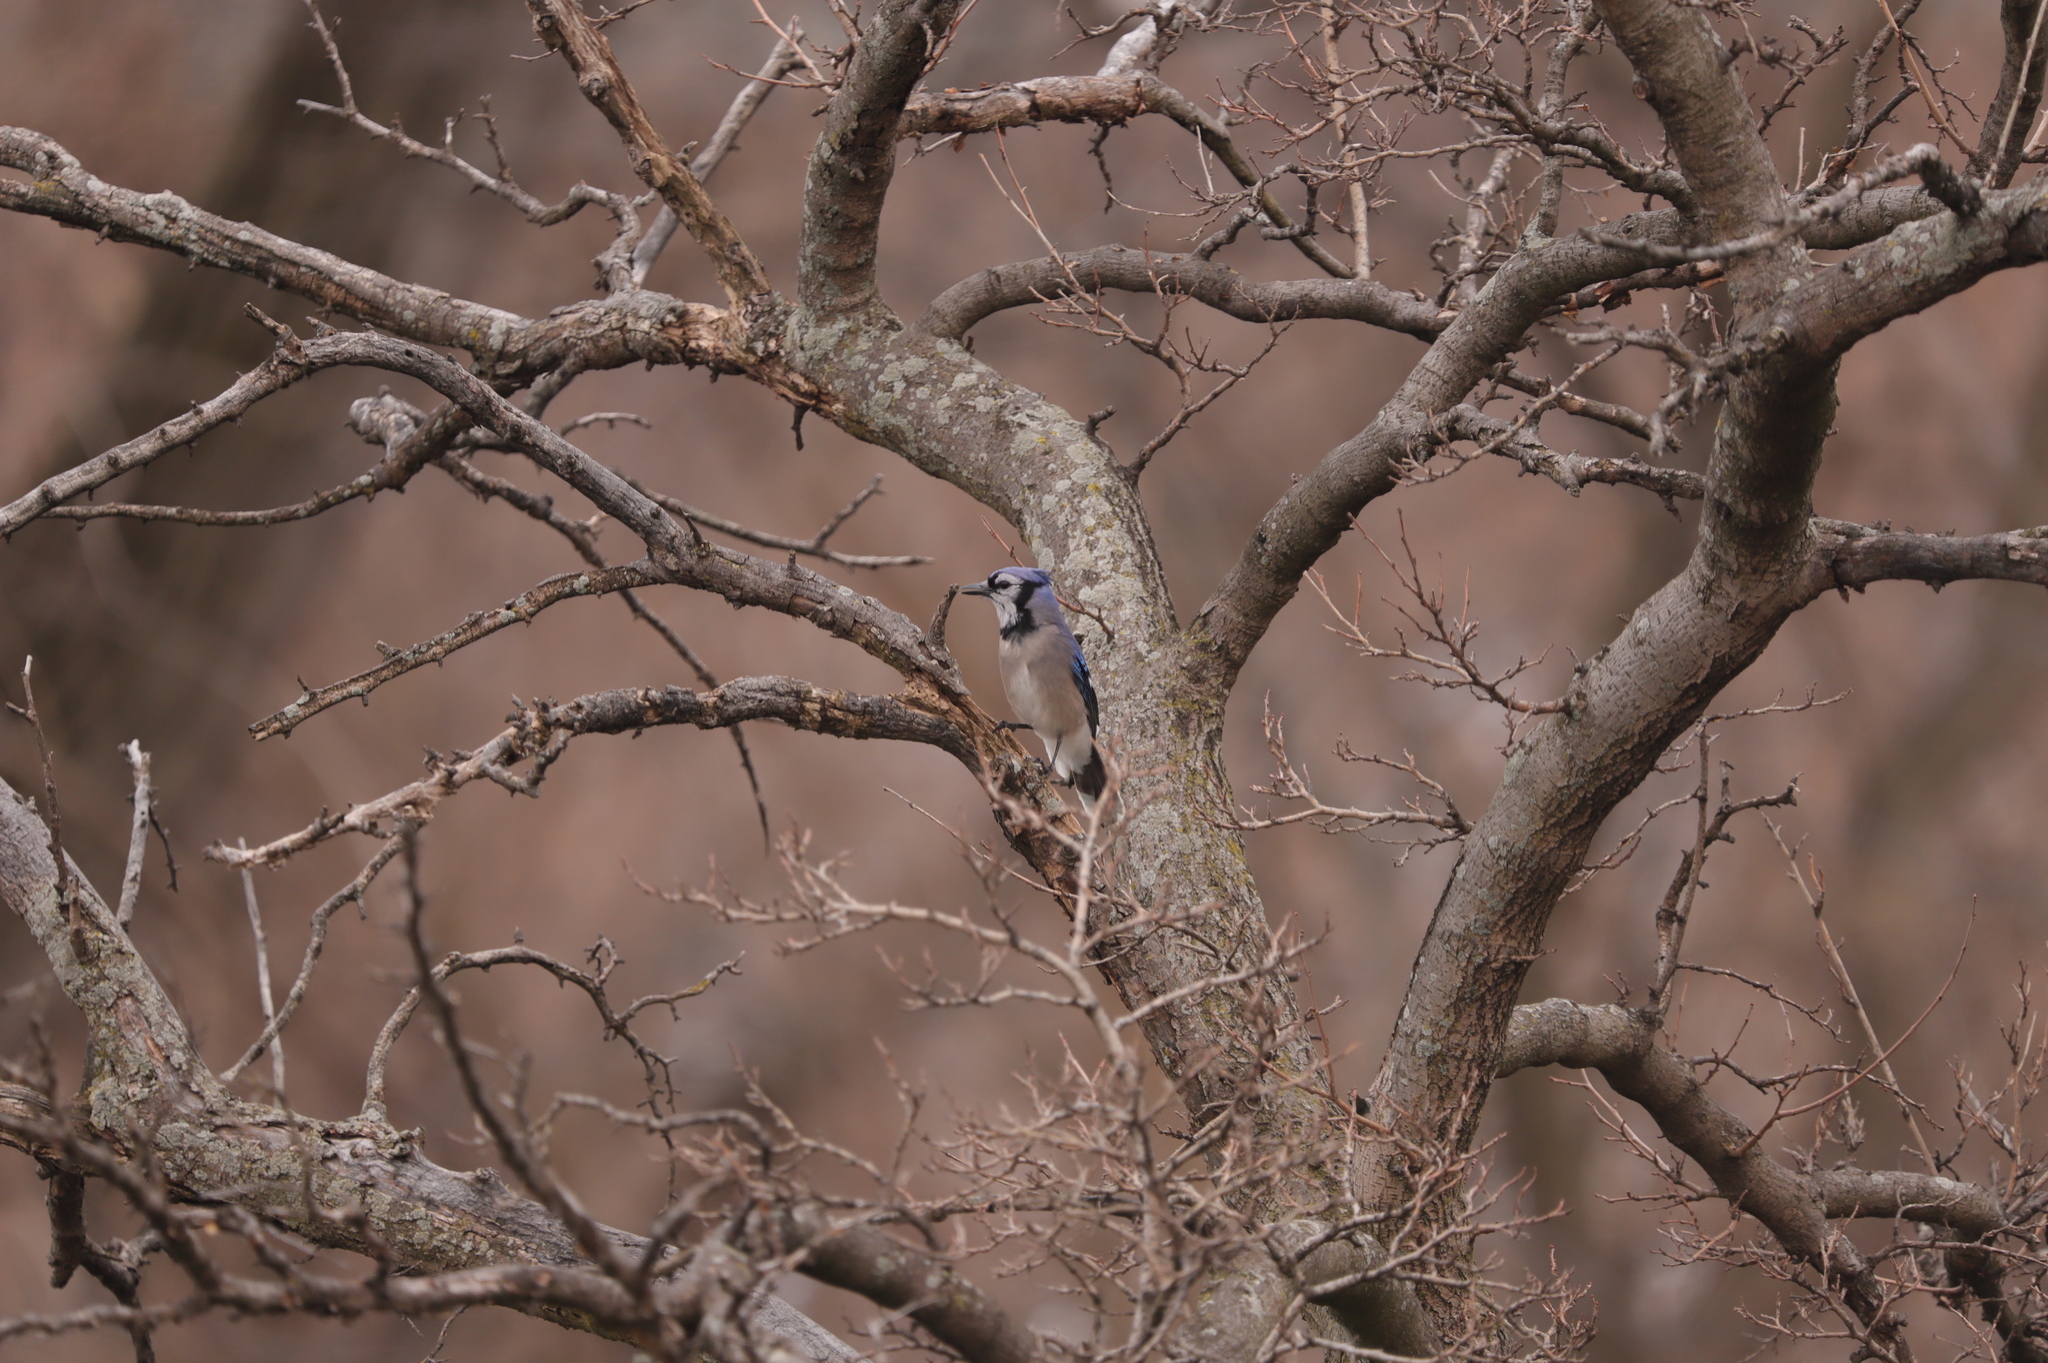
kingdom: Animalia
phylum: Chordata
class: Aves
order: Passeriformes
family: Corvidae
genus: Cyanocitta
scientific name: Cyanocitta cristata
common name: Blue jay
